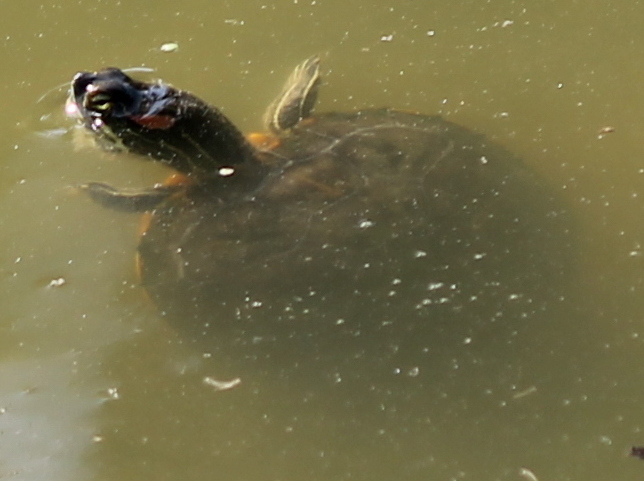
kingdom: Animalia
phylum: Chordata
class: Testudines
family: Emydidae
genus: Trachemys
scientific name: Trachemys scripta
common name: Slider
